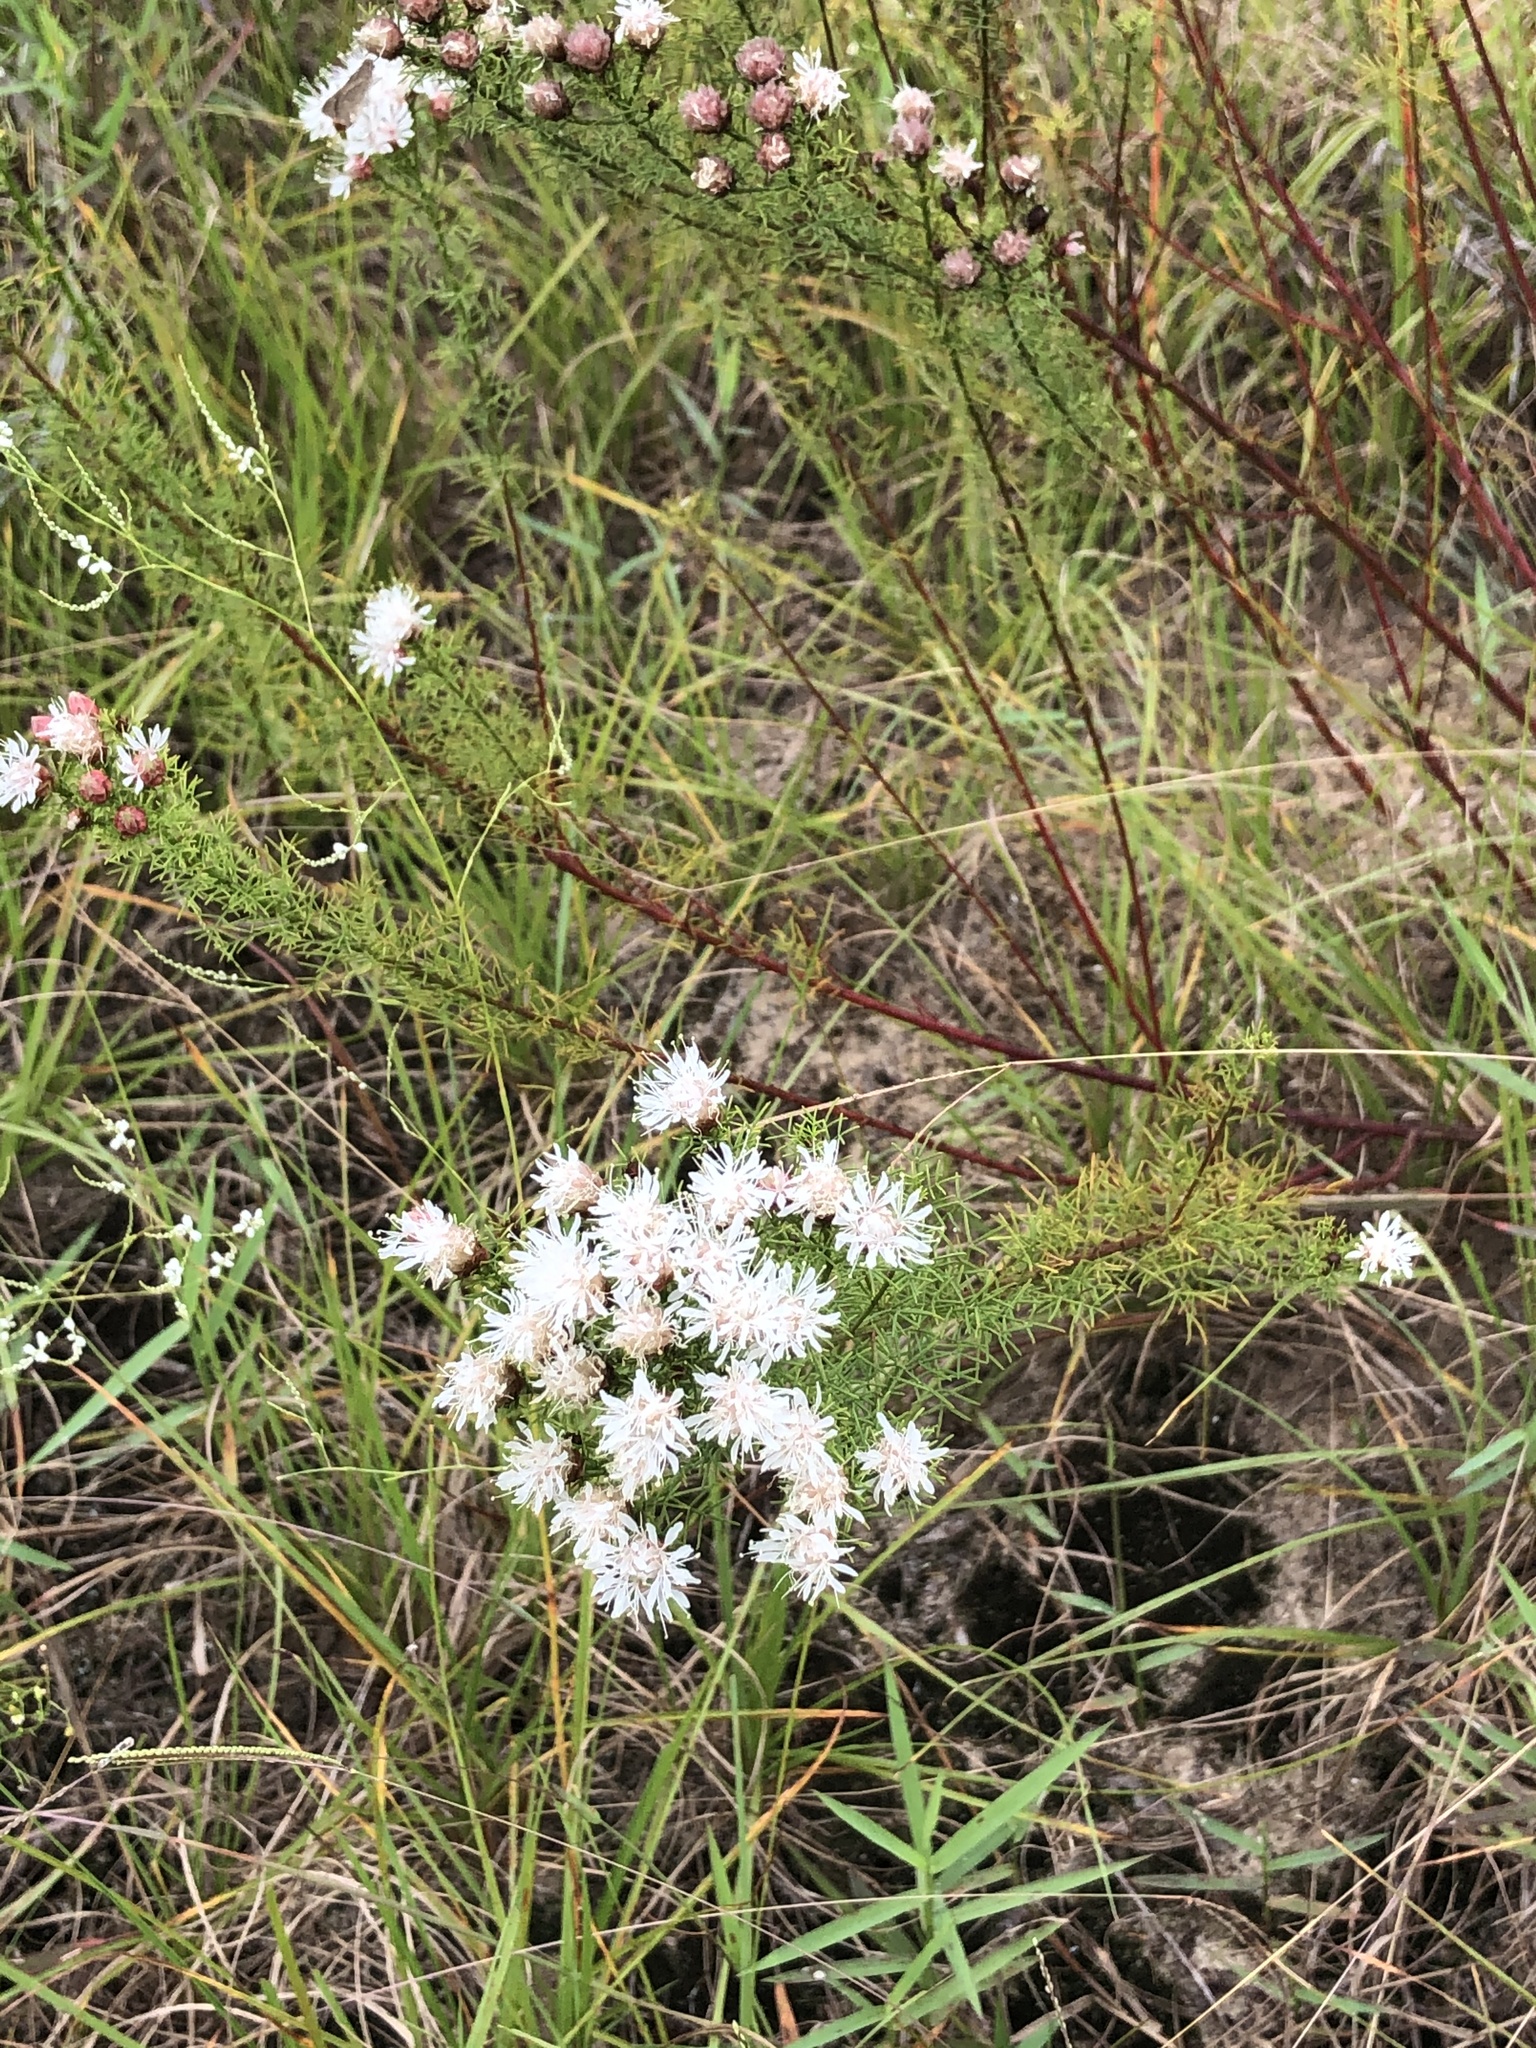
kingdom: Plantae
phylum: Tracheophyta
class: Magnoliopsida
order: Fabales
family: Fabaceae
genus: Dalea
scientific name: Dalea pinnata
